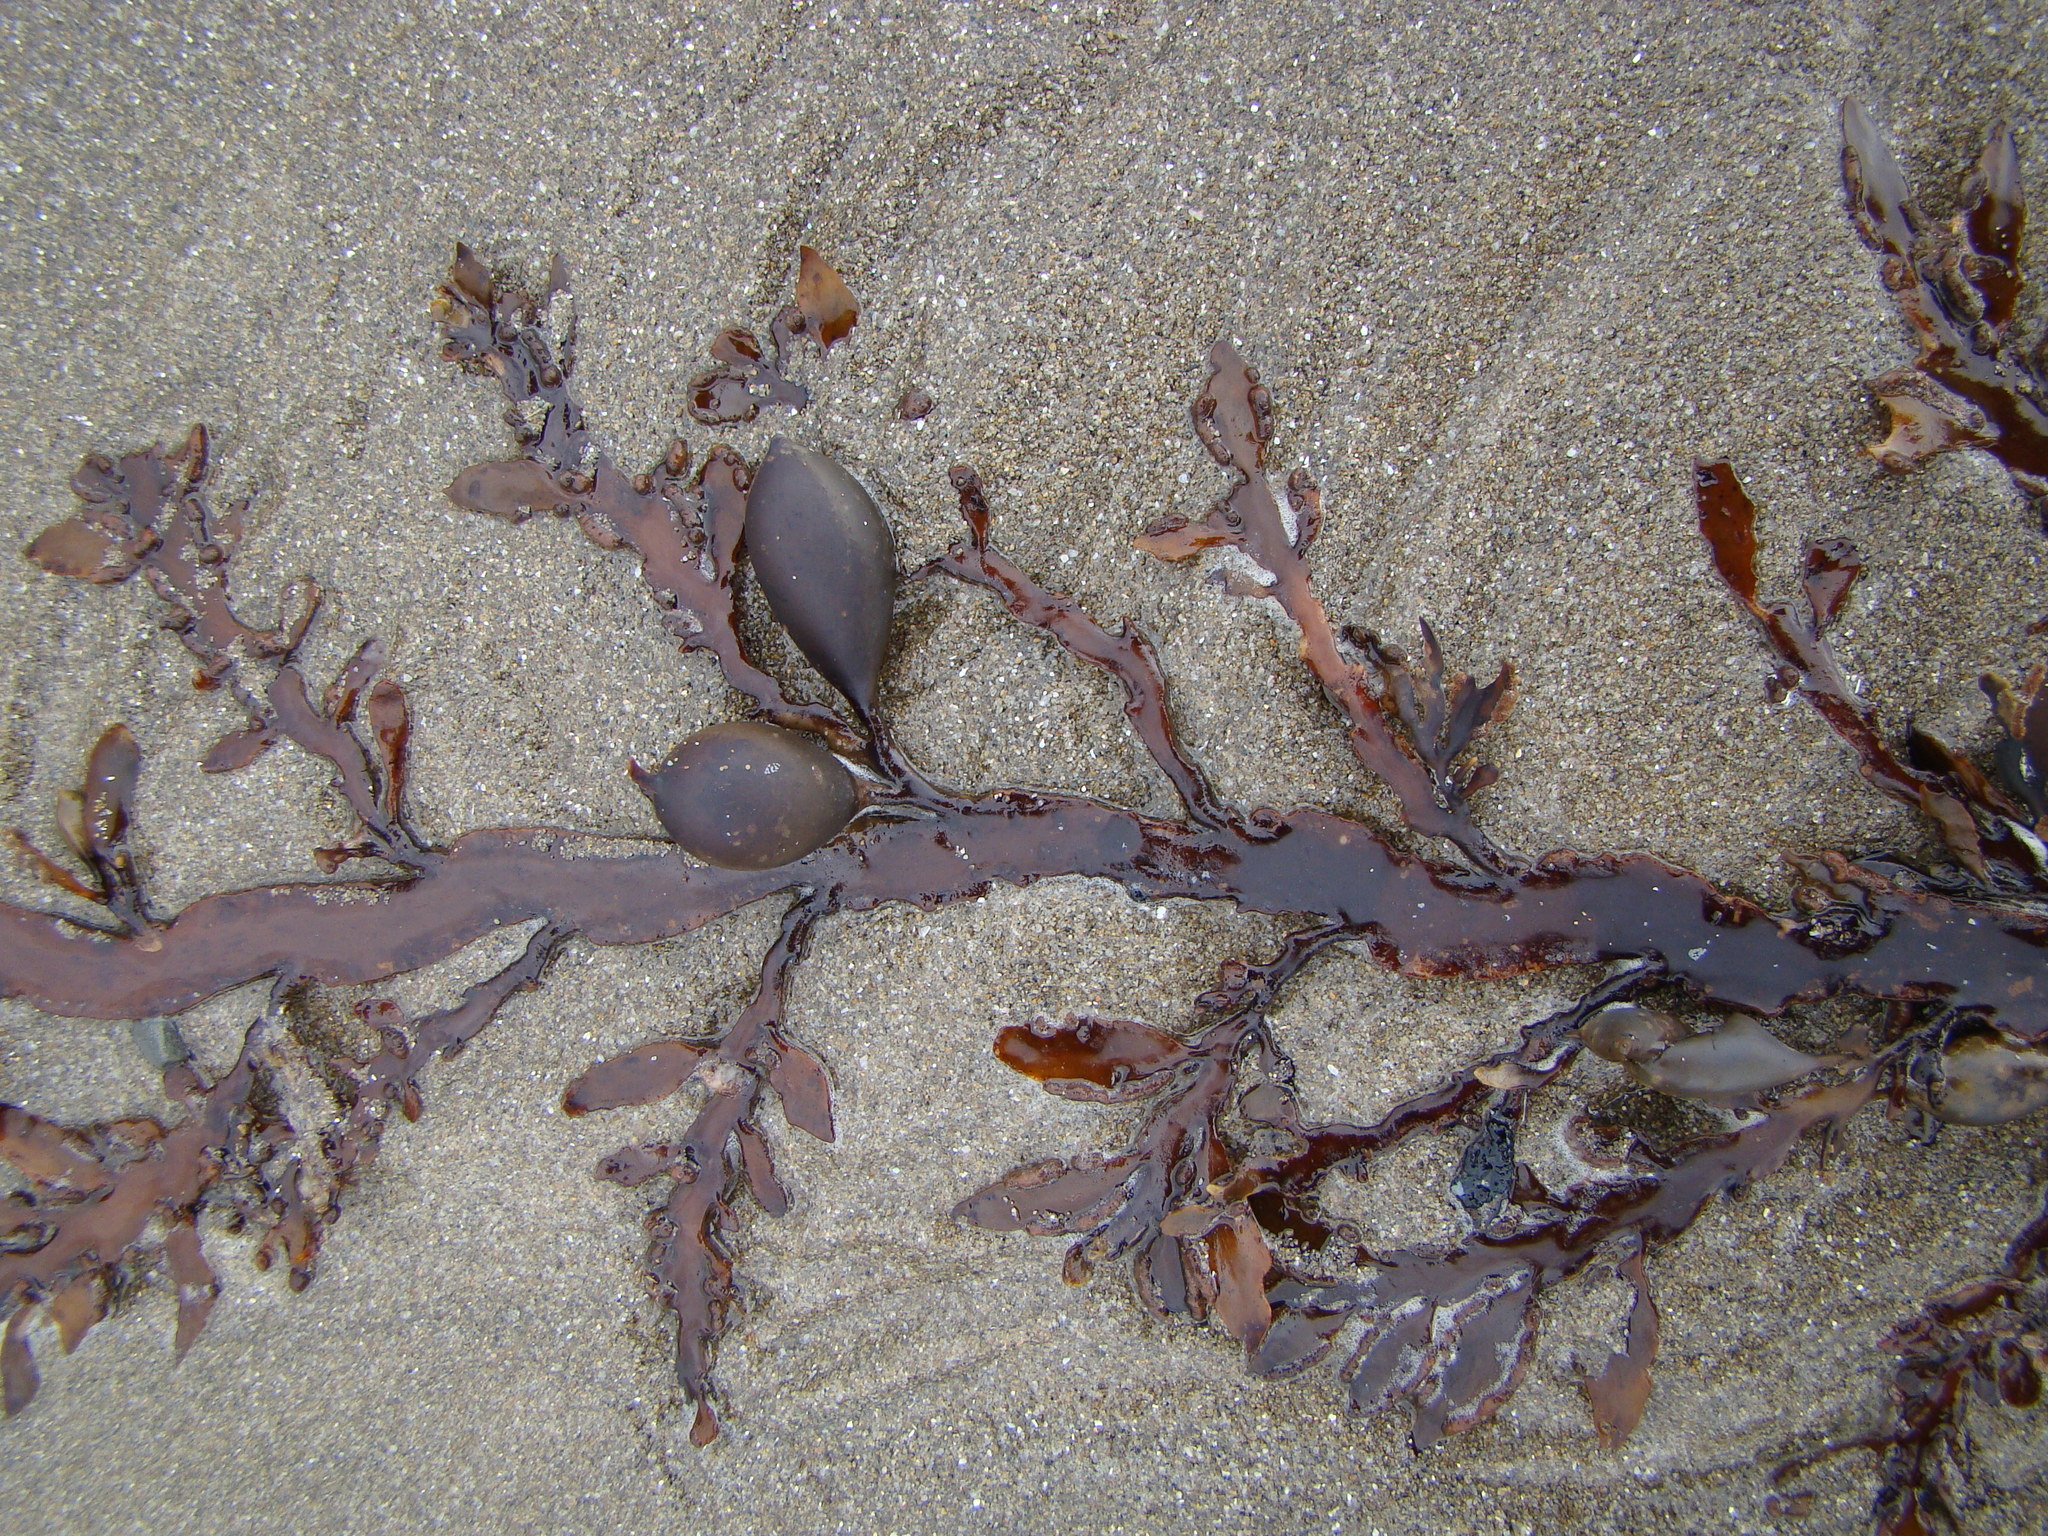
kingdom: Chromista
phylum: Ochrophyta
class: Phaeophyceae
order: Fucales
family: Sargassaceae
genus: Carpophyllum
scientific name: Carpophyllum maschalocarpum
